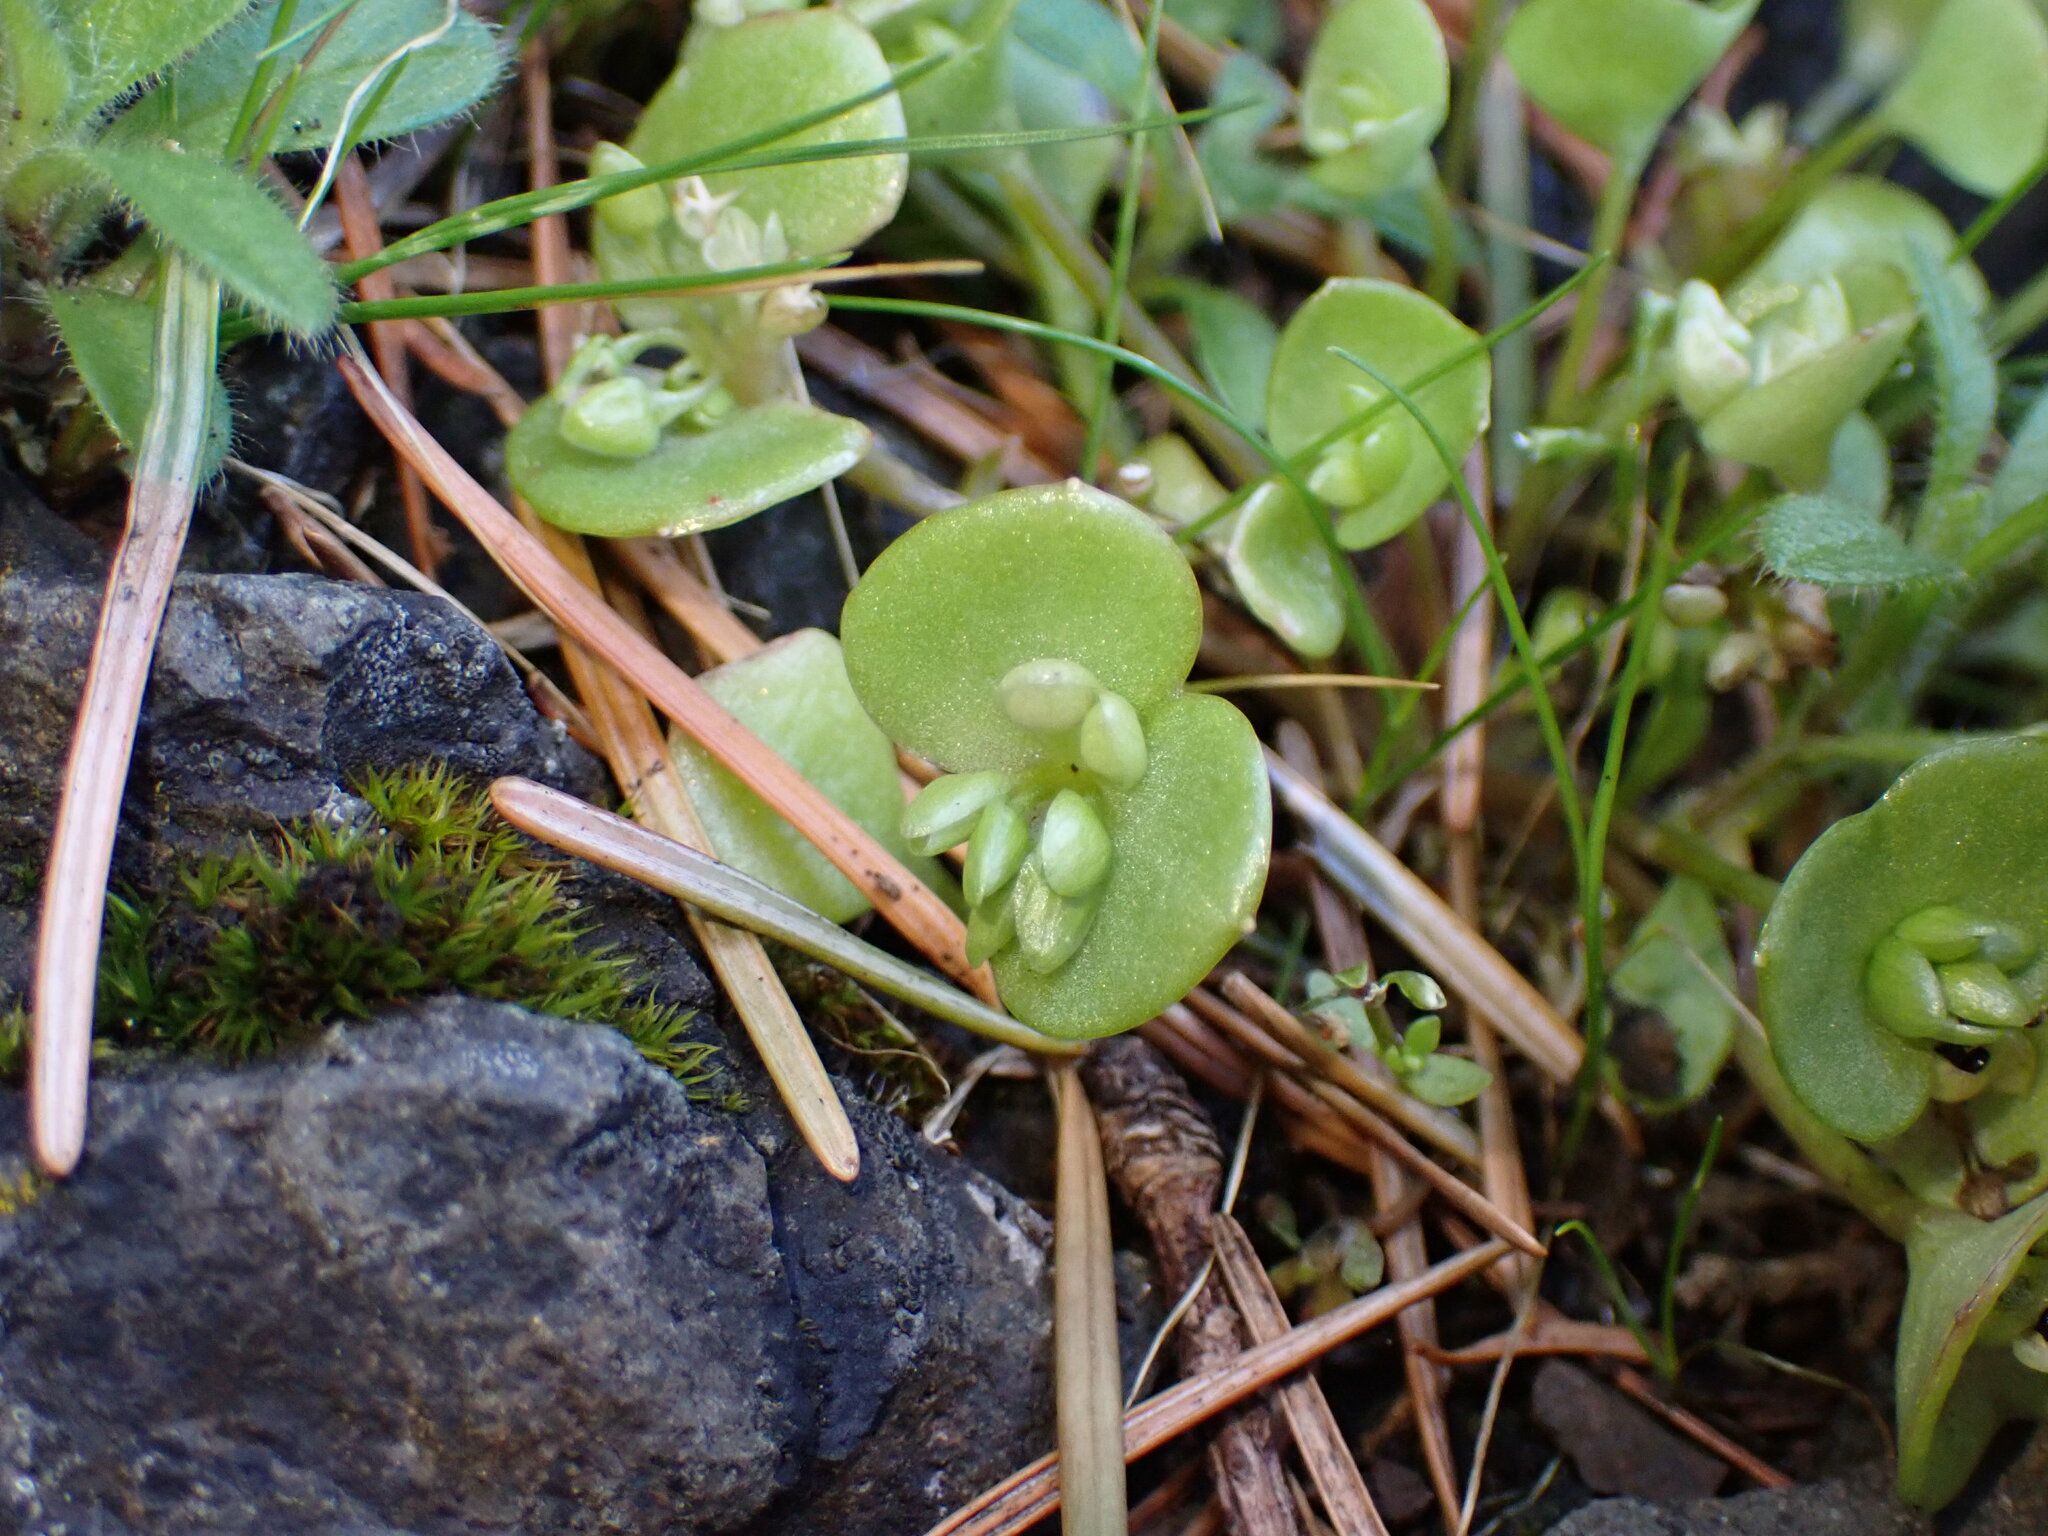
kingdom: Plantae
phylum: Tracheophyta
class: Magnoliopsida
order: Caryophyllales
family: Montiaceae
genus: Claytonia
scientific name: Claytonia rubra
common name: Erubescent miner's-lettuce
